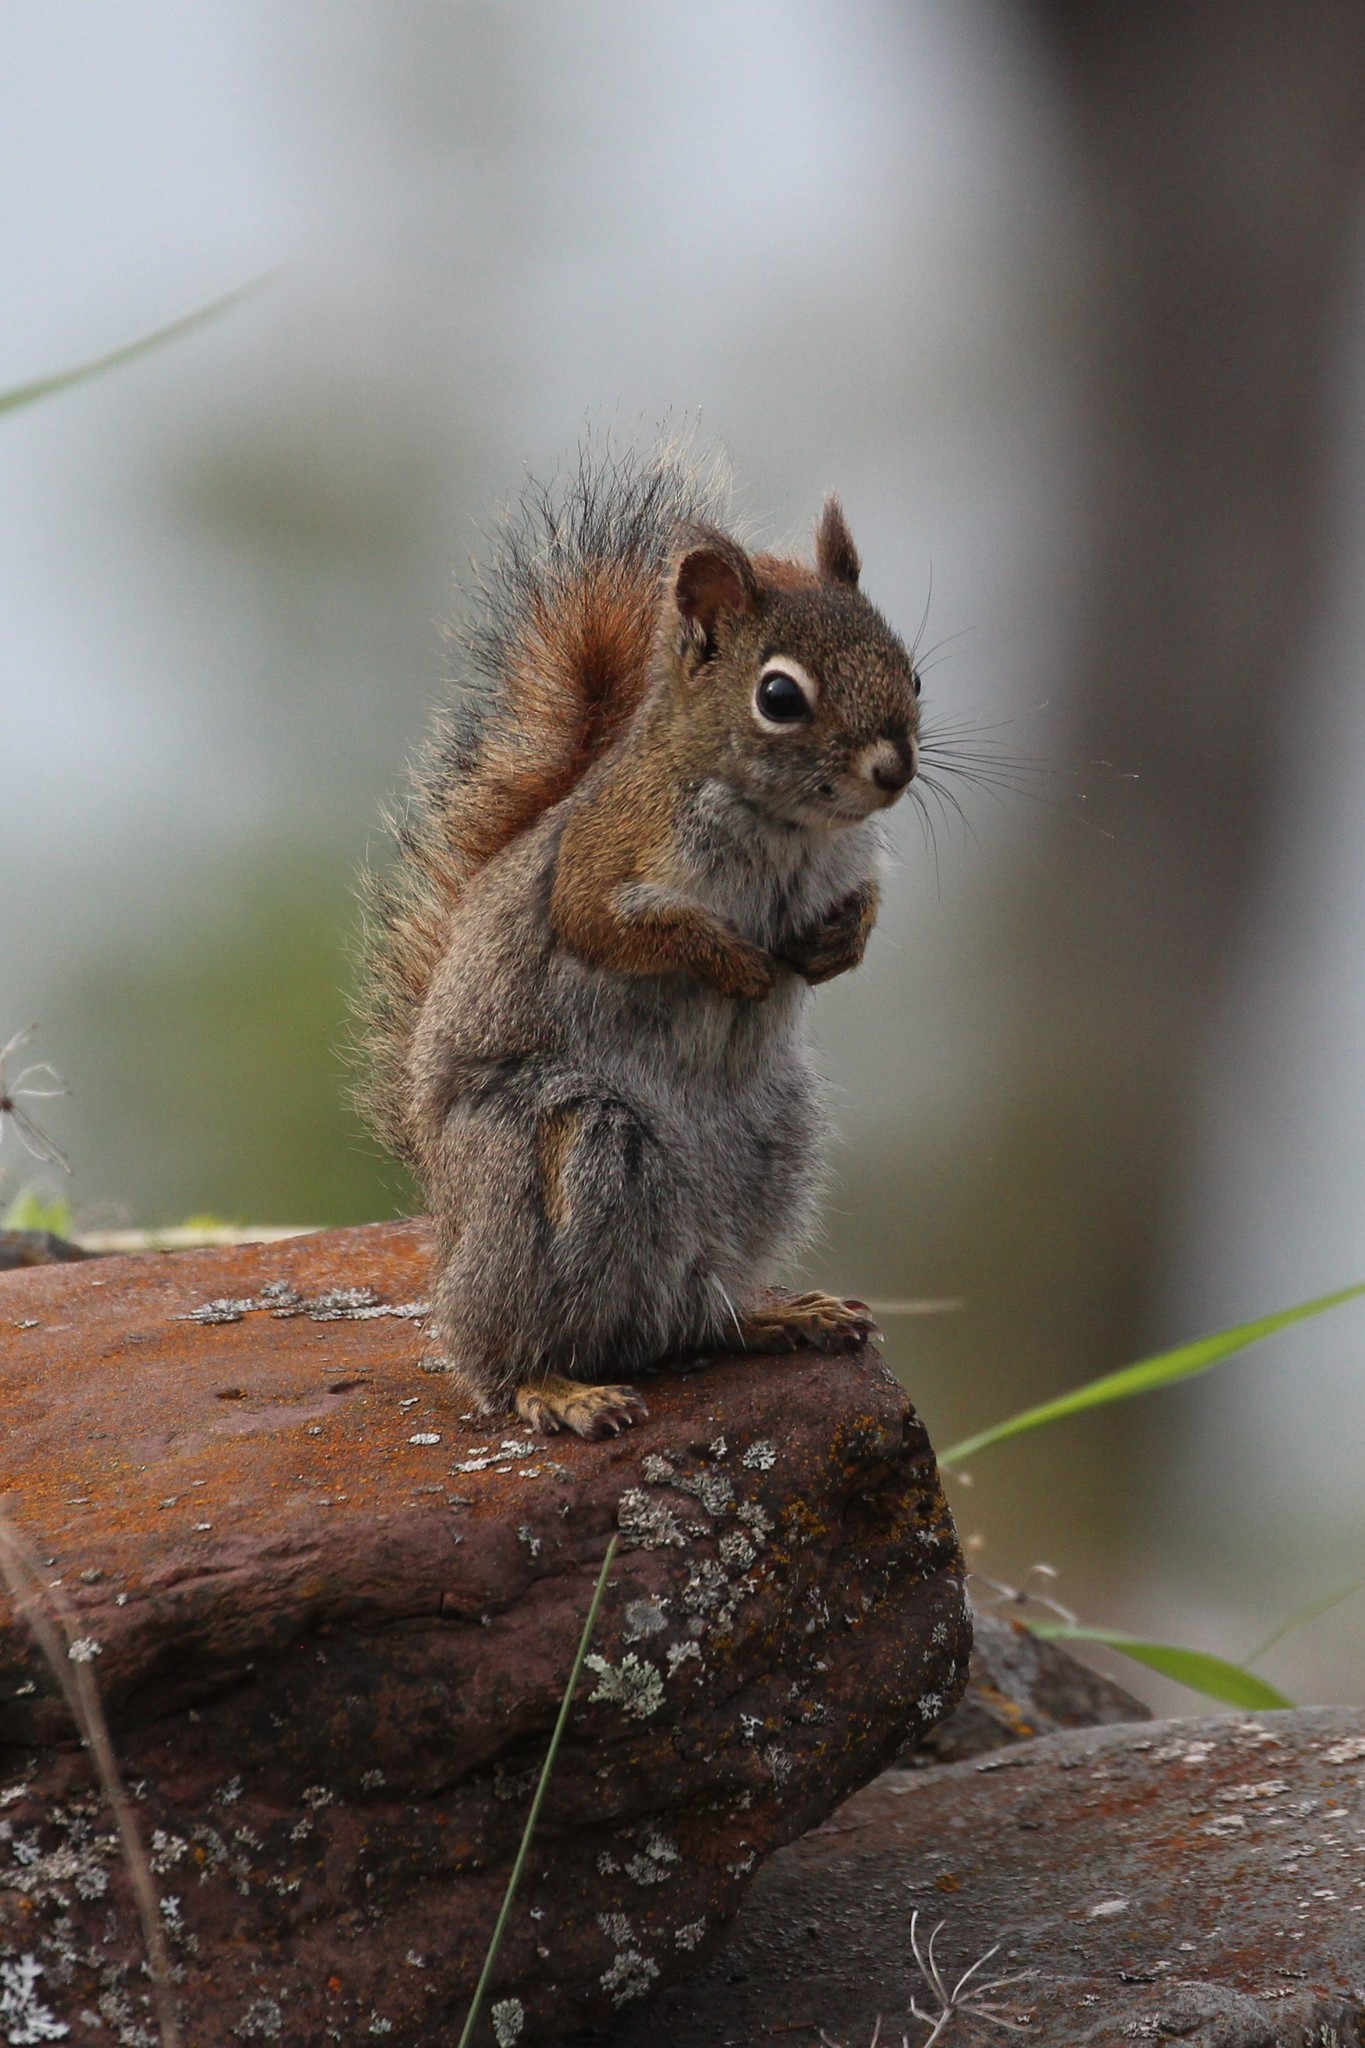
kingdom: Animalia
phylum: Chordata
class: Mammalia
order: Rodentia
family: Sciuridae
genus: Tamiasciurus
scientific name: Tamiasciurus hudsonicus
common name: Red squirrel
